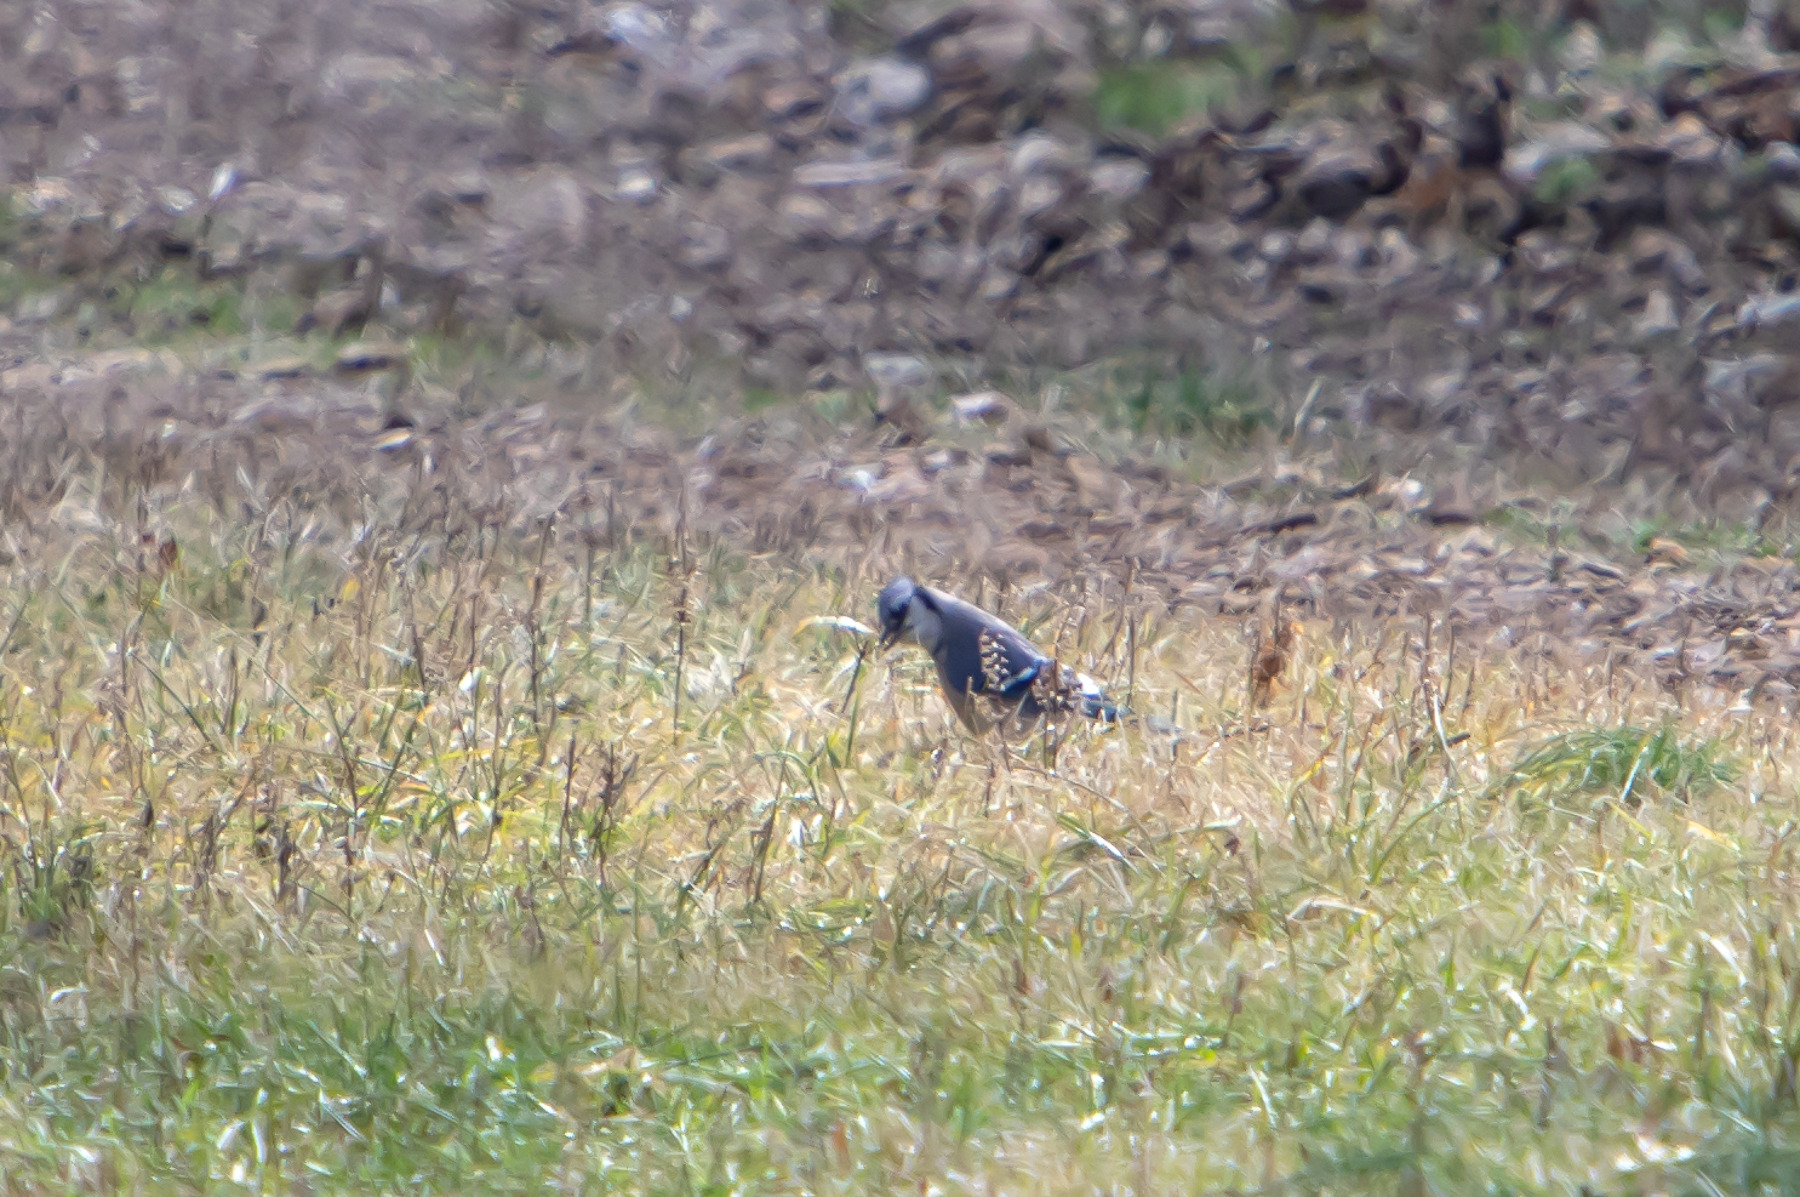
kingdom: Animalia
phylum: Chordata
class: Aves
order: Passeriformes
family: Corvidae
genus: Cyanocitta
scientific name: Cyanocitta cristata
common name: Blue jay
